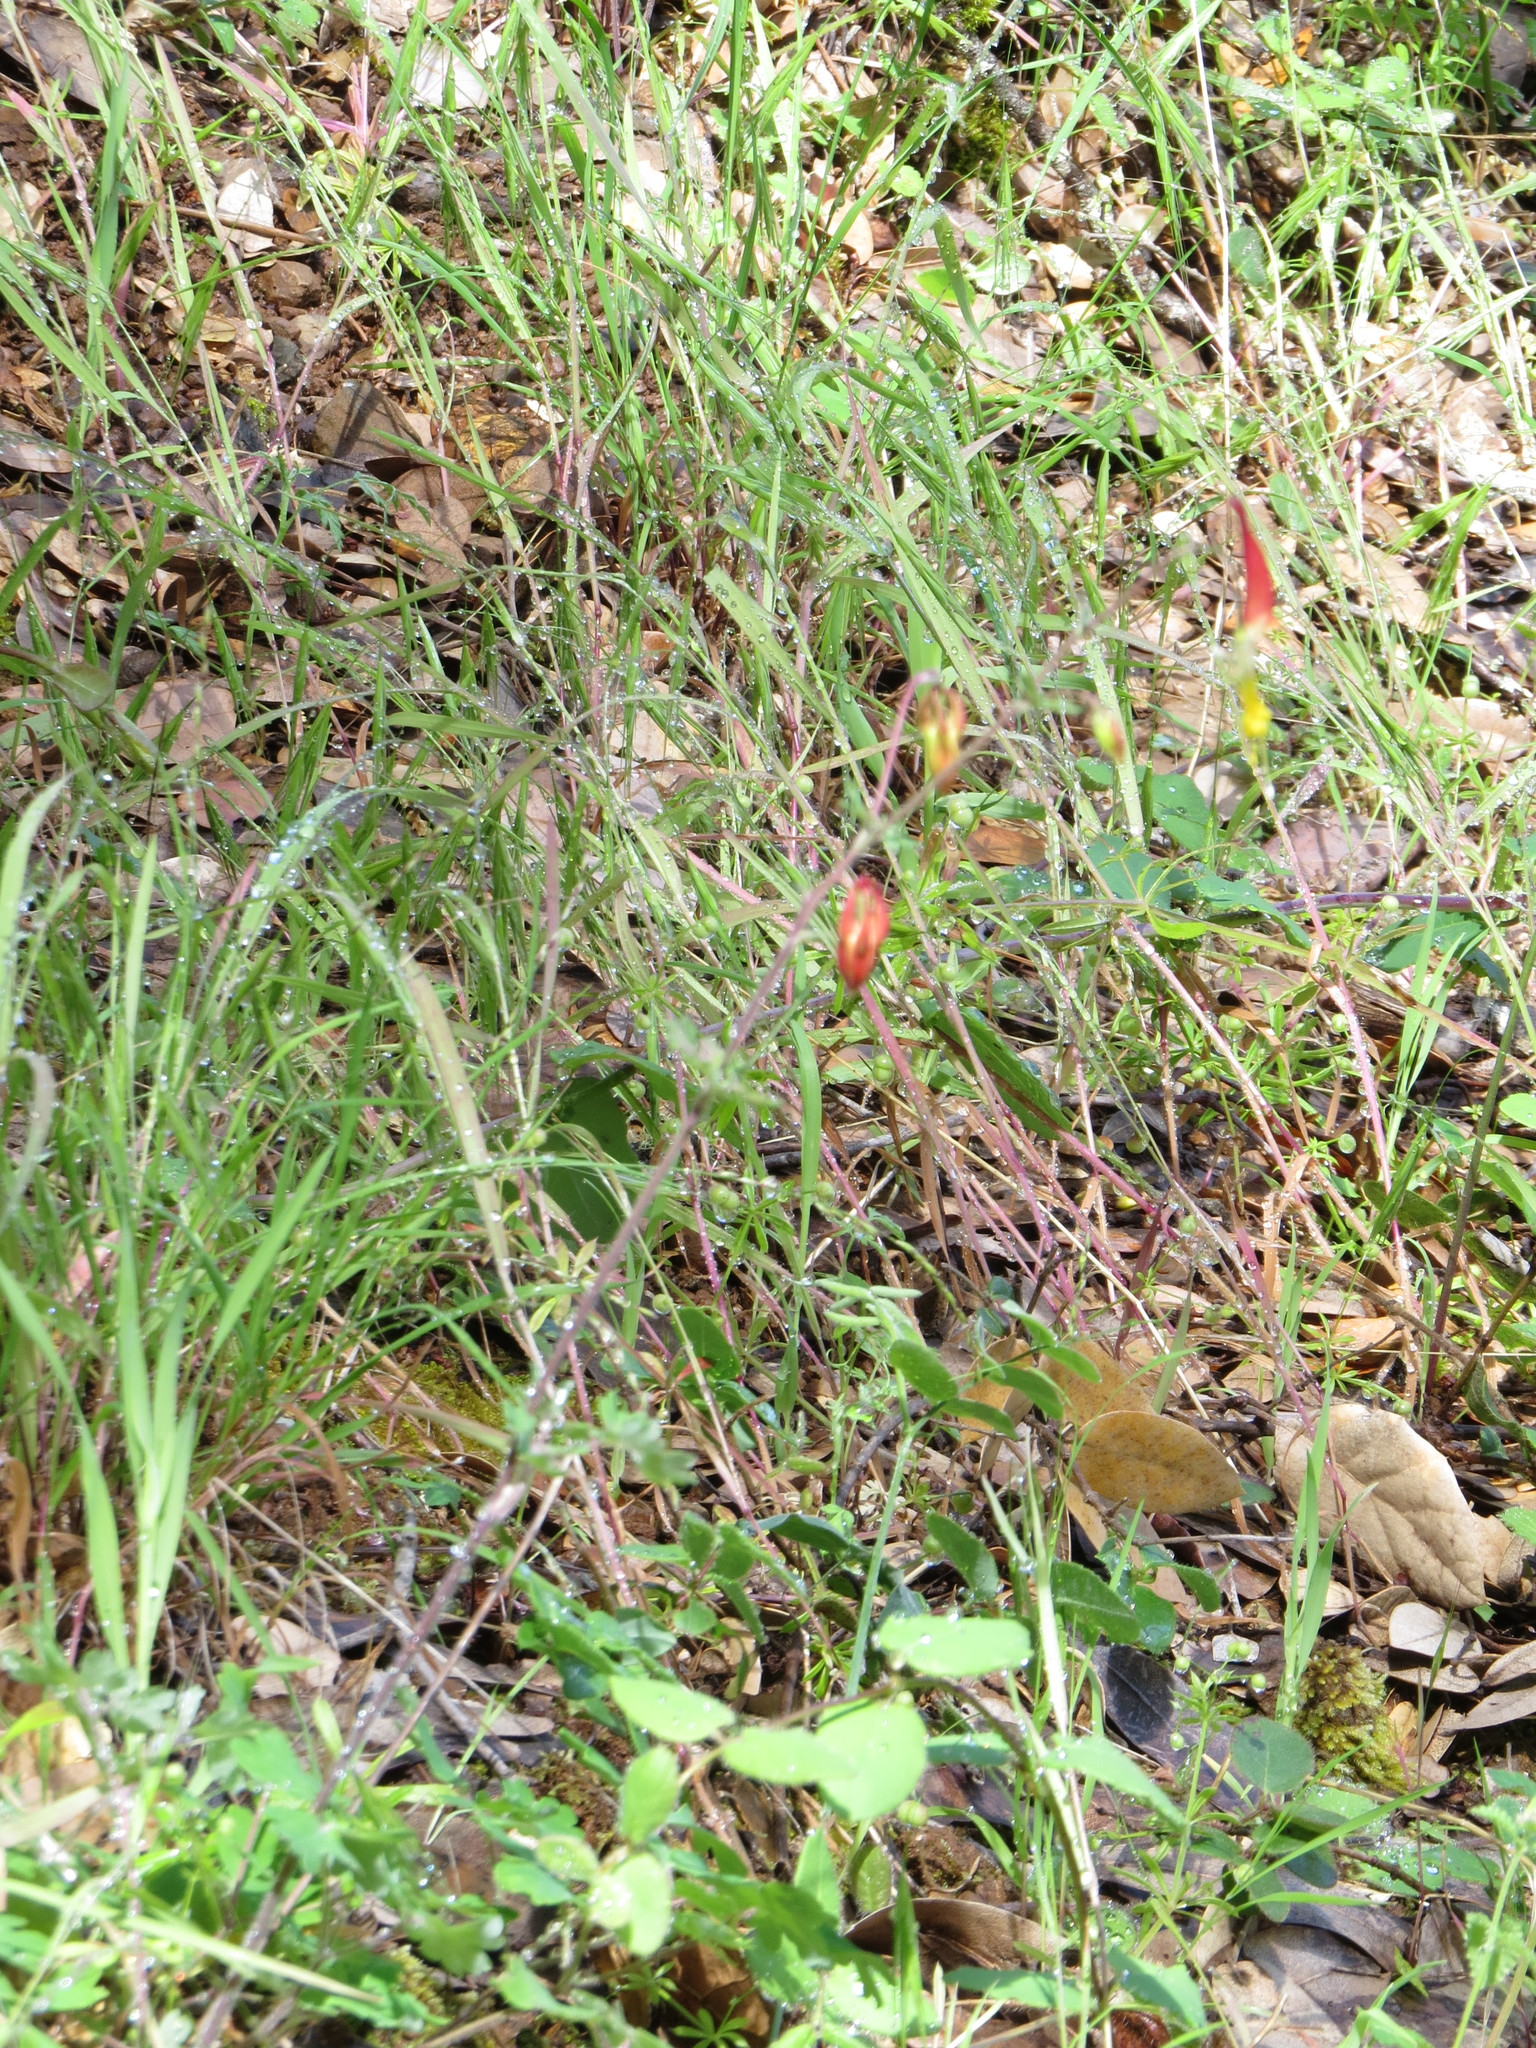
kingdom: Plantae
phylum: Tracheophyta
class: Magnoliopsida
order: Ranunculales
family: Ranunculaceae
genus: Aquilegia
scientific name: Aquilegia formosa
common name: Sitka columbine
